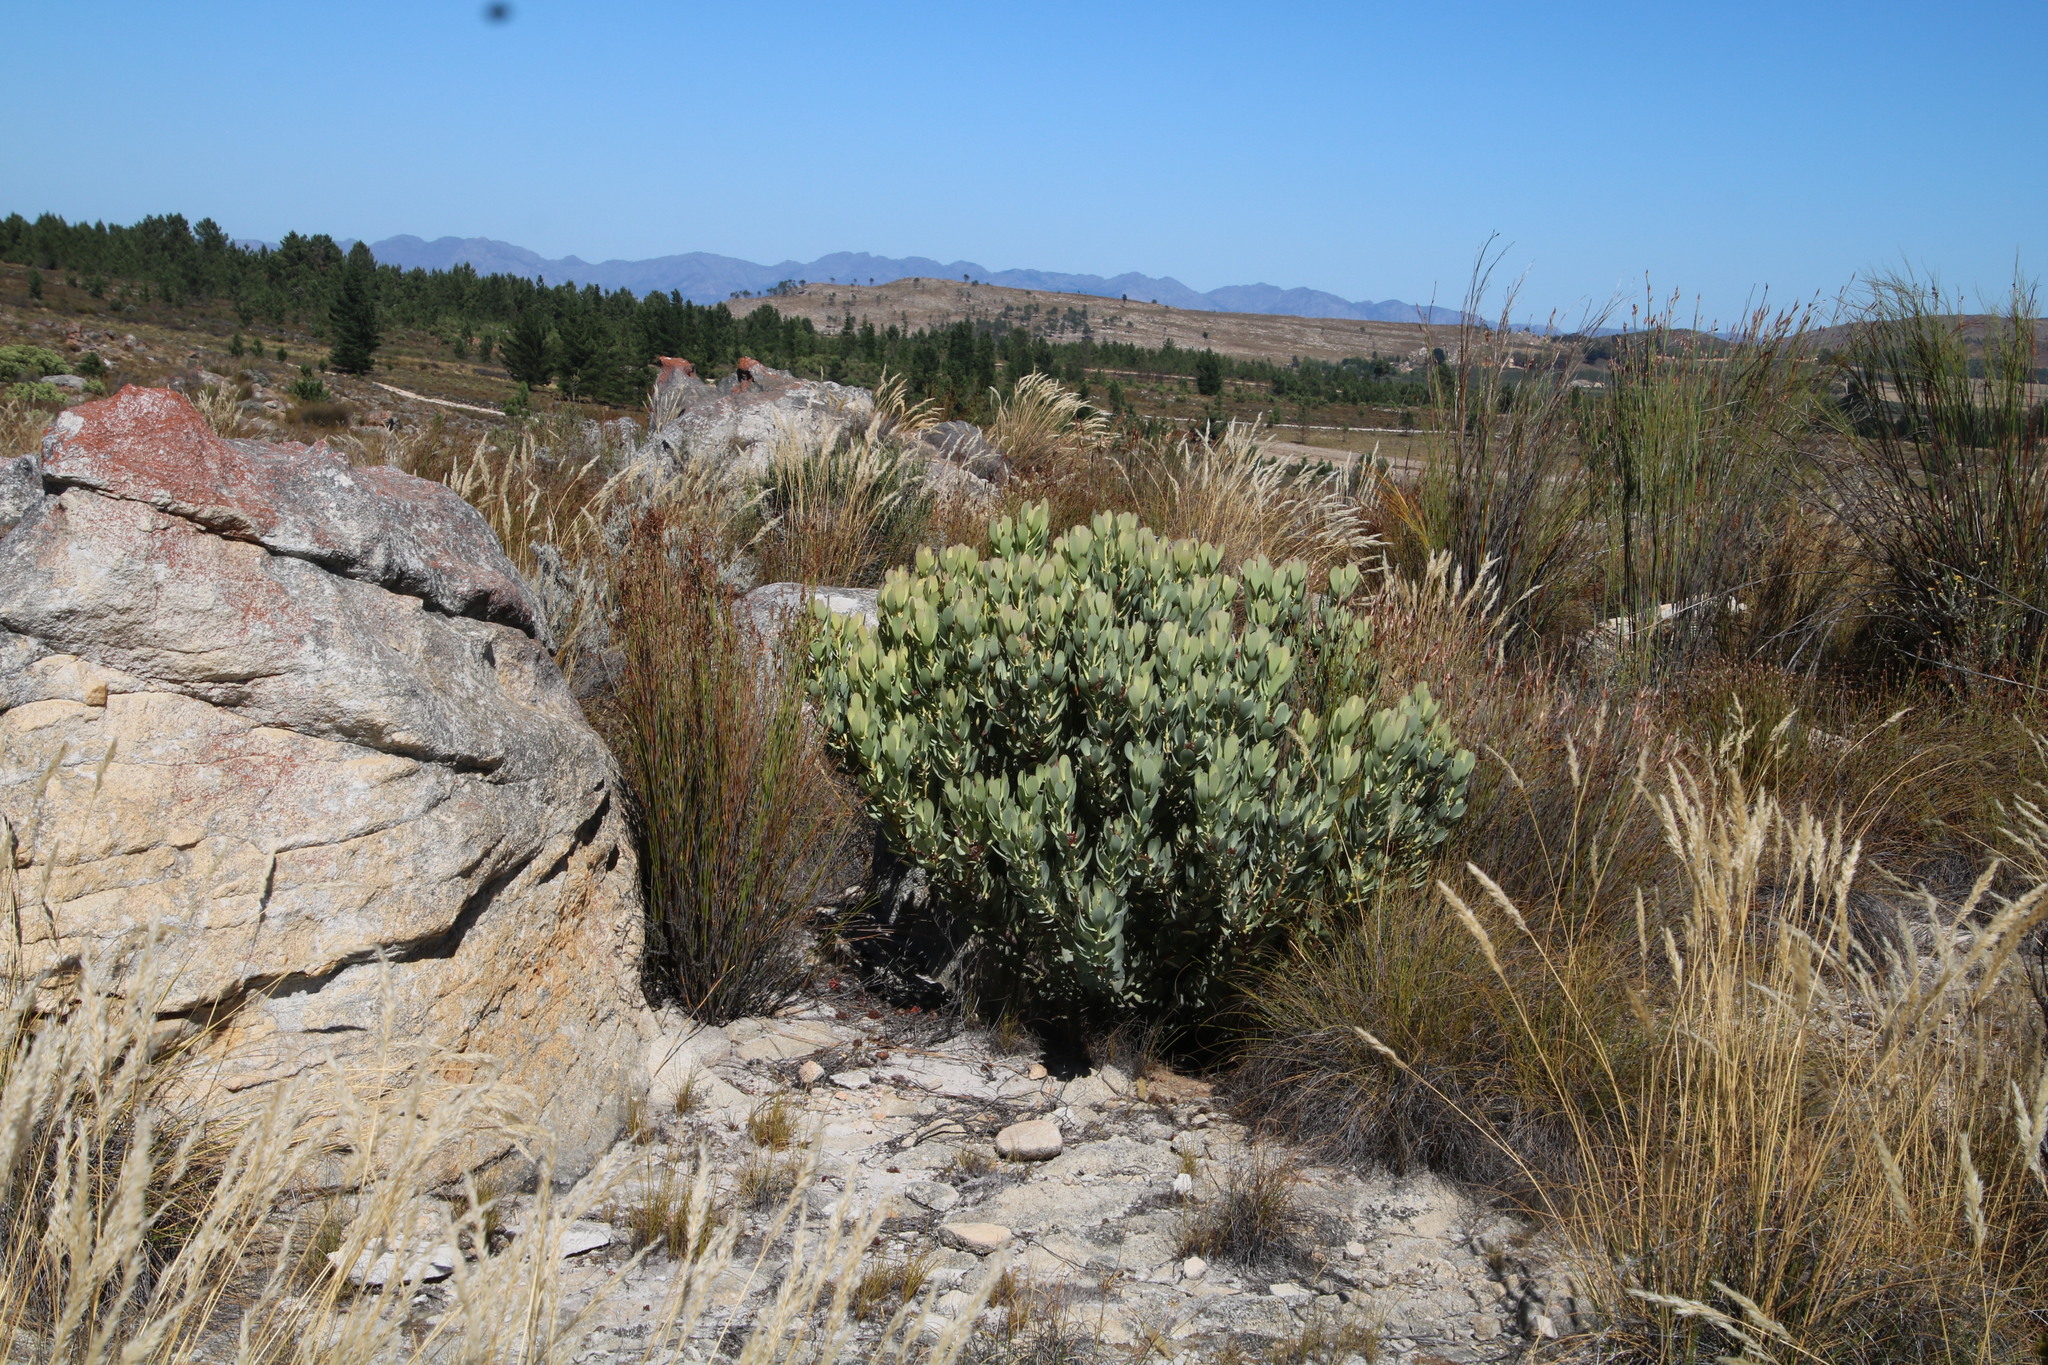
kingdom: Plantae
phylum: Tracheophyta
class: Magnoliopsida
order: Proteales
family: Proteaceae
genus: Leucadendron
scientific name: Leucadendron arcuatum
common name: Red-edge conebush
